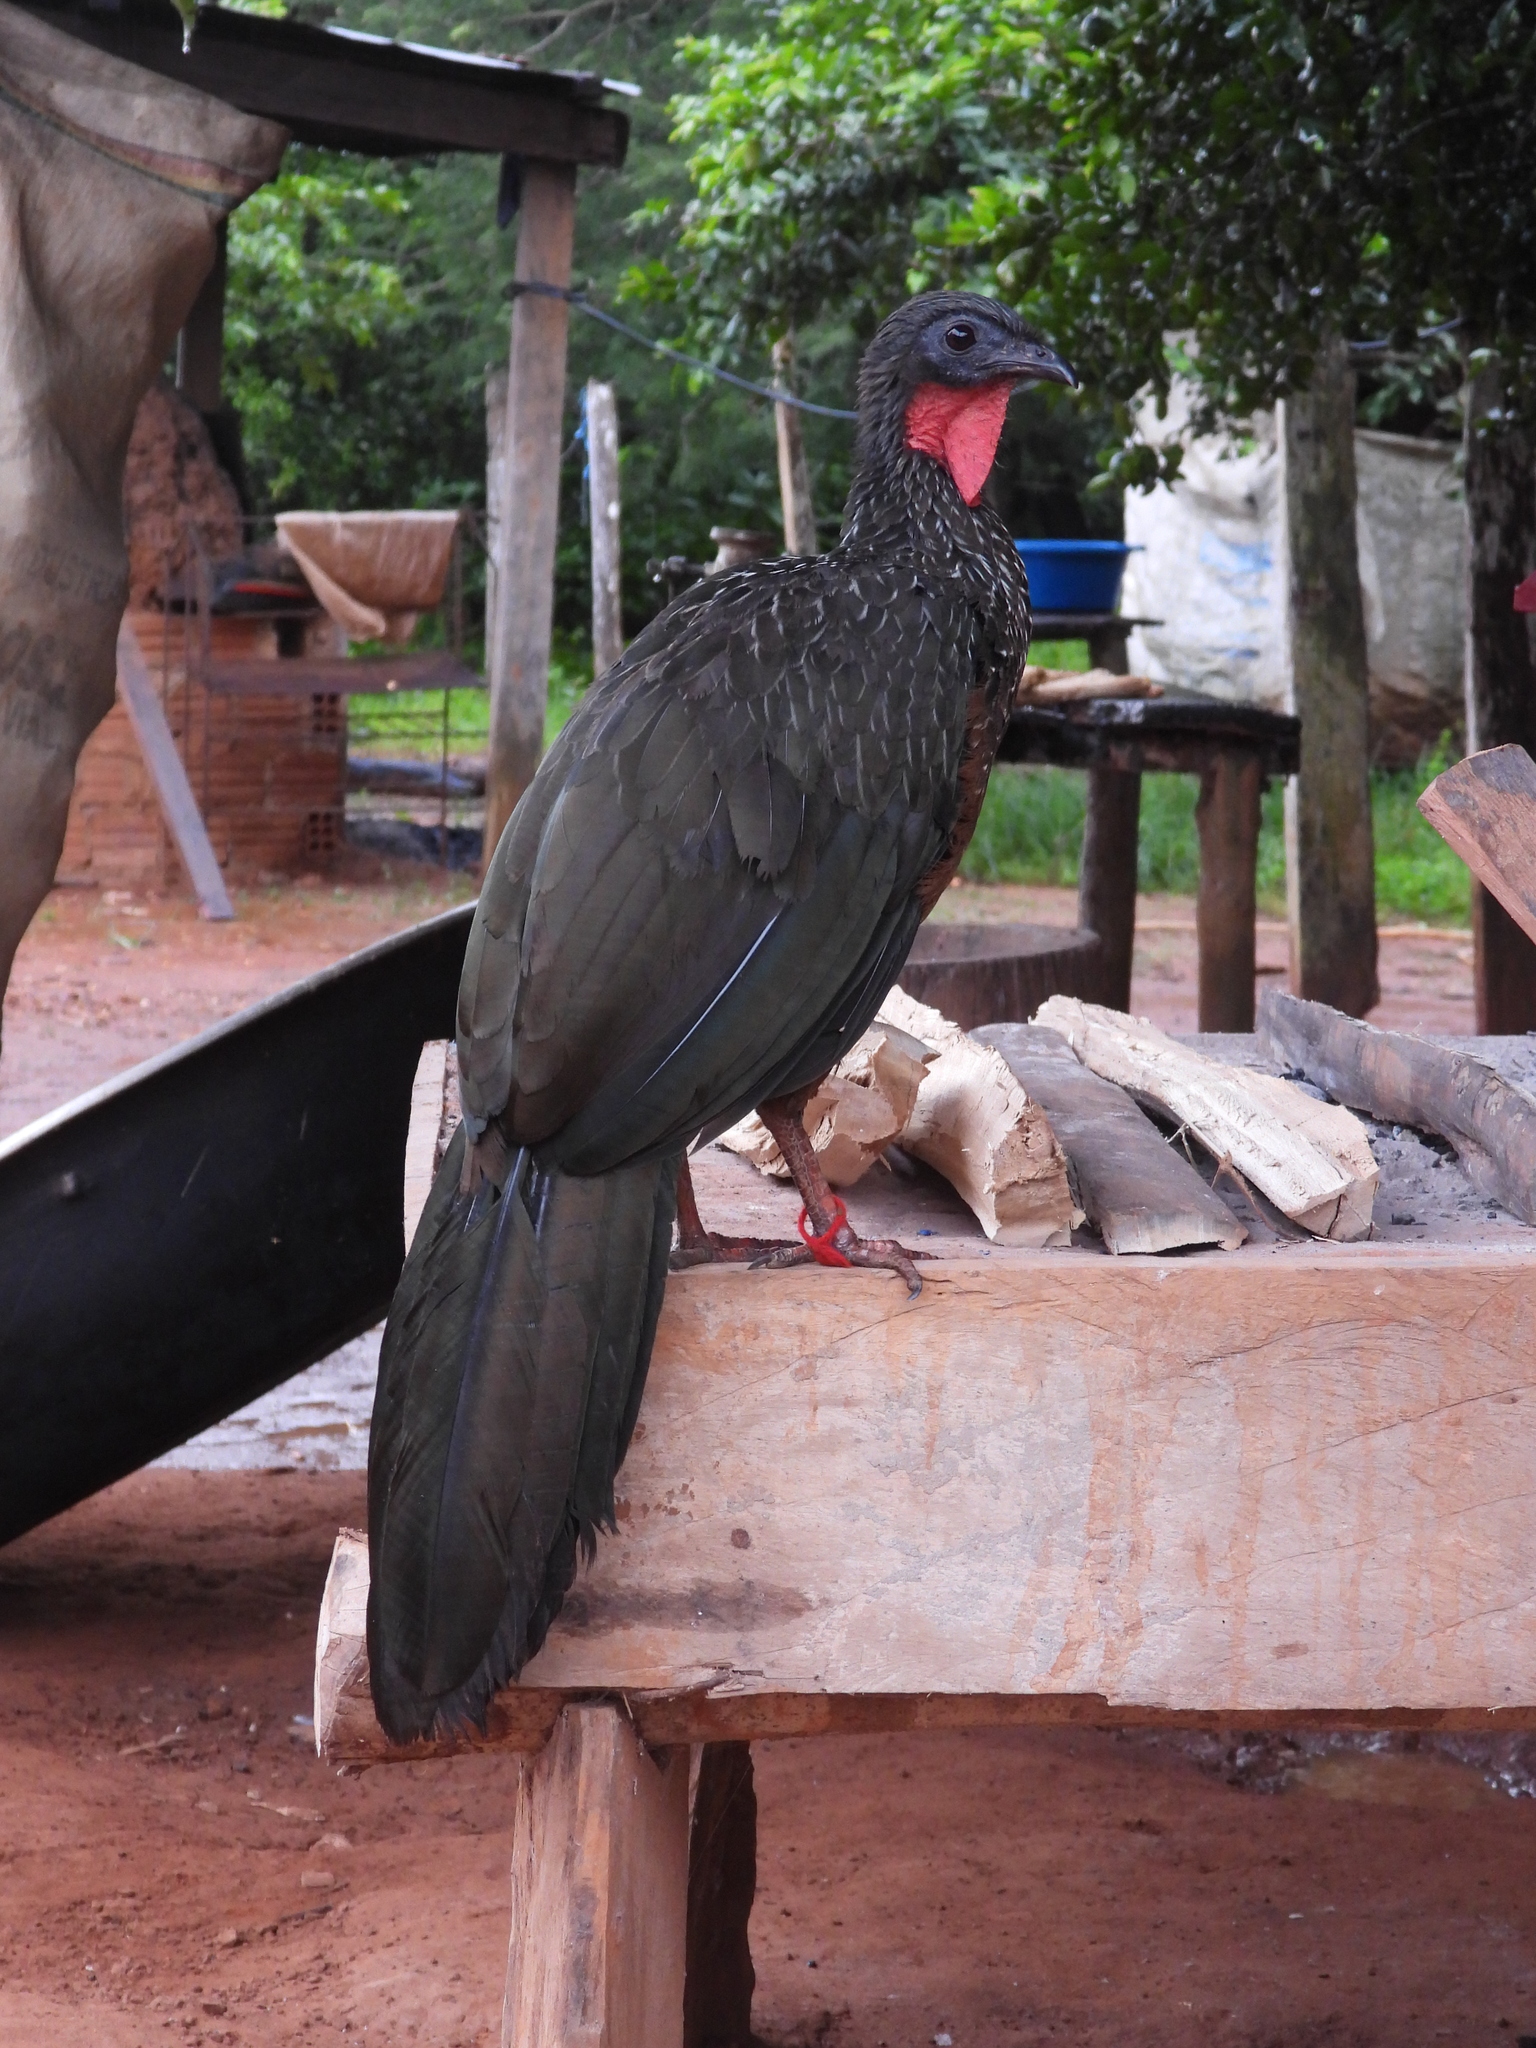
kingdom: Animalia
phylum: Chordata
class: Aves
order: Galliformes
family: Cracidae
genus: Penelope
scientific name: Penelope jacquacu
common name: Spix's guan
